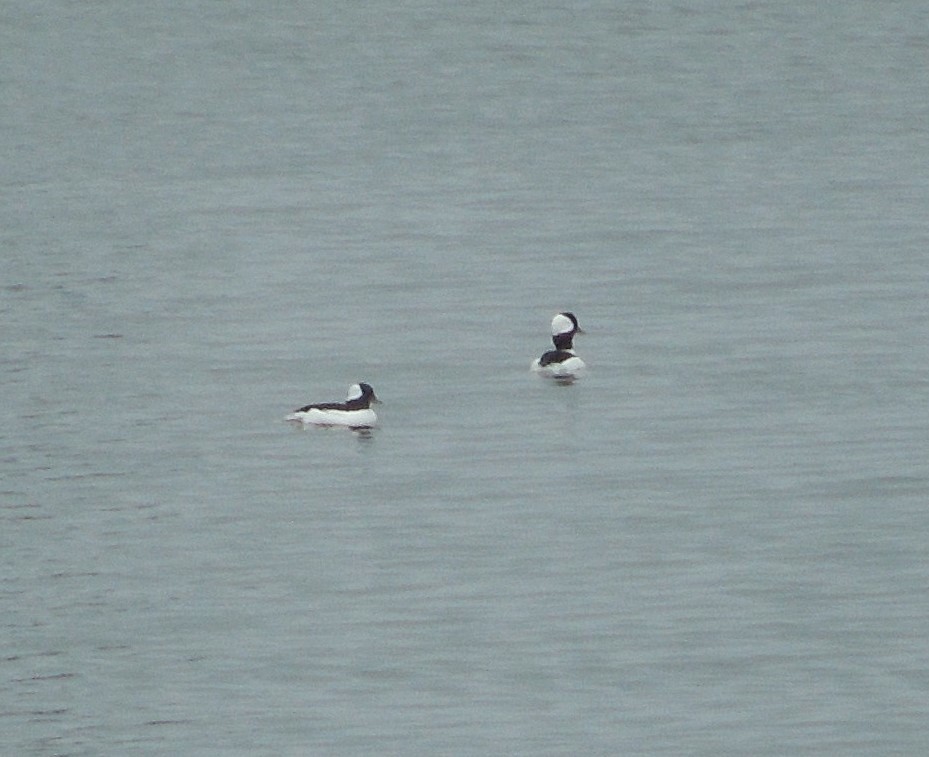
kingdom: Animalia
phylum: Chordata
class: Aves
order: Anseriformes
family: Anatidae
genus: Bucephala
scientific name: Bucephala albeola
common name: Bufflehead
